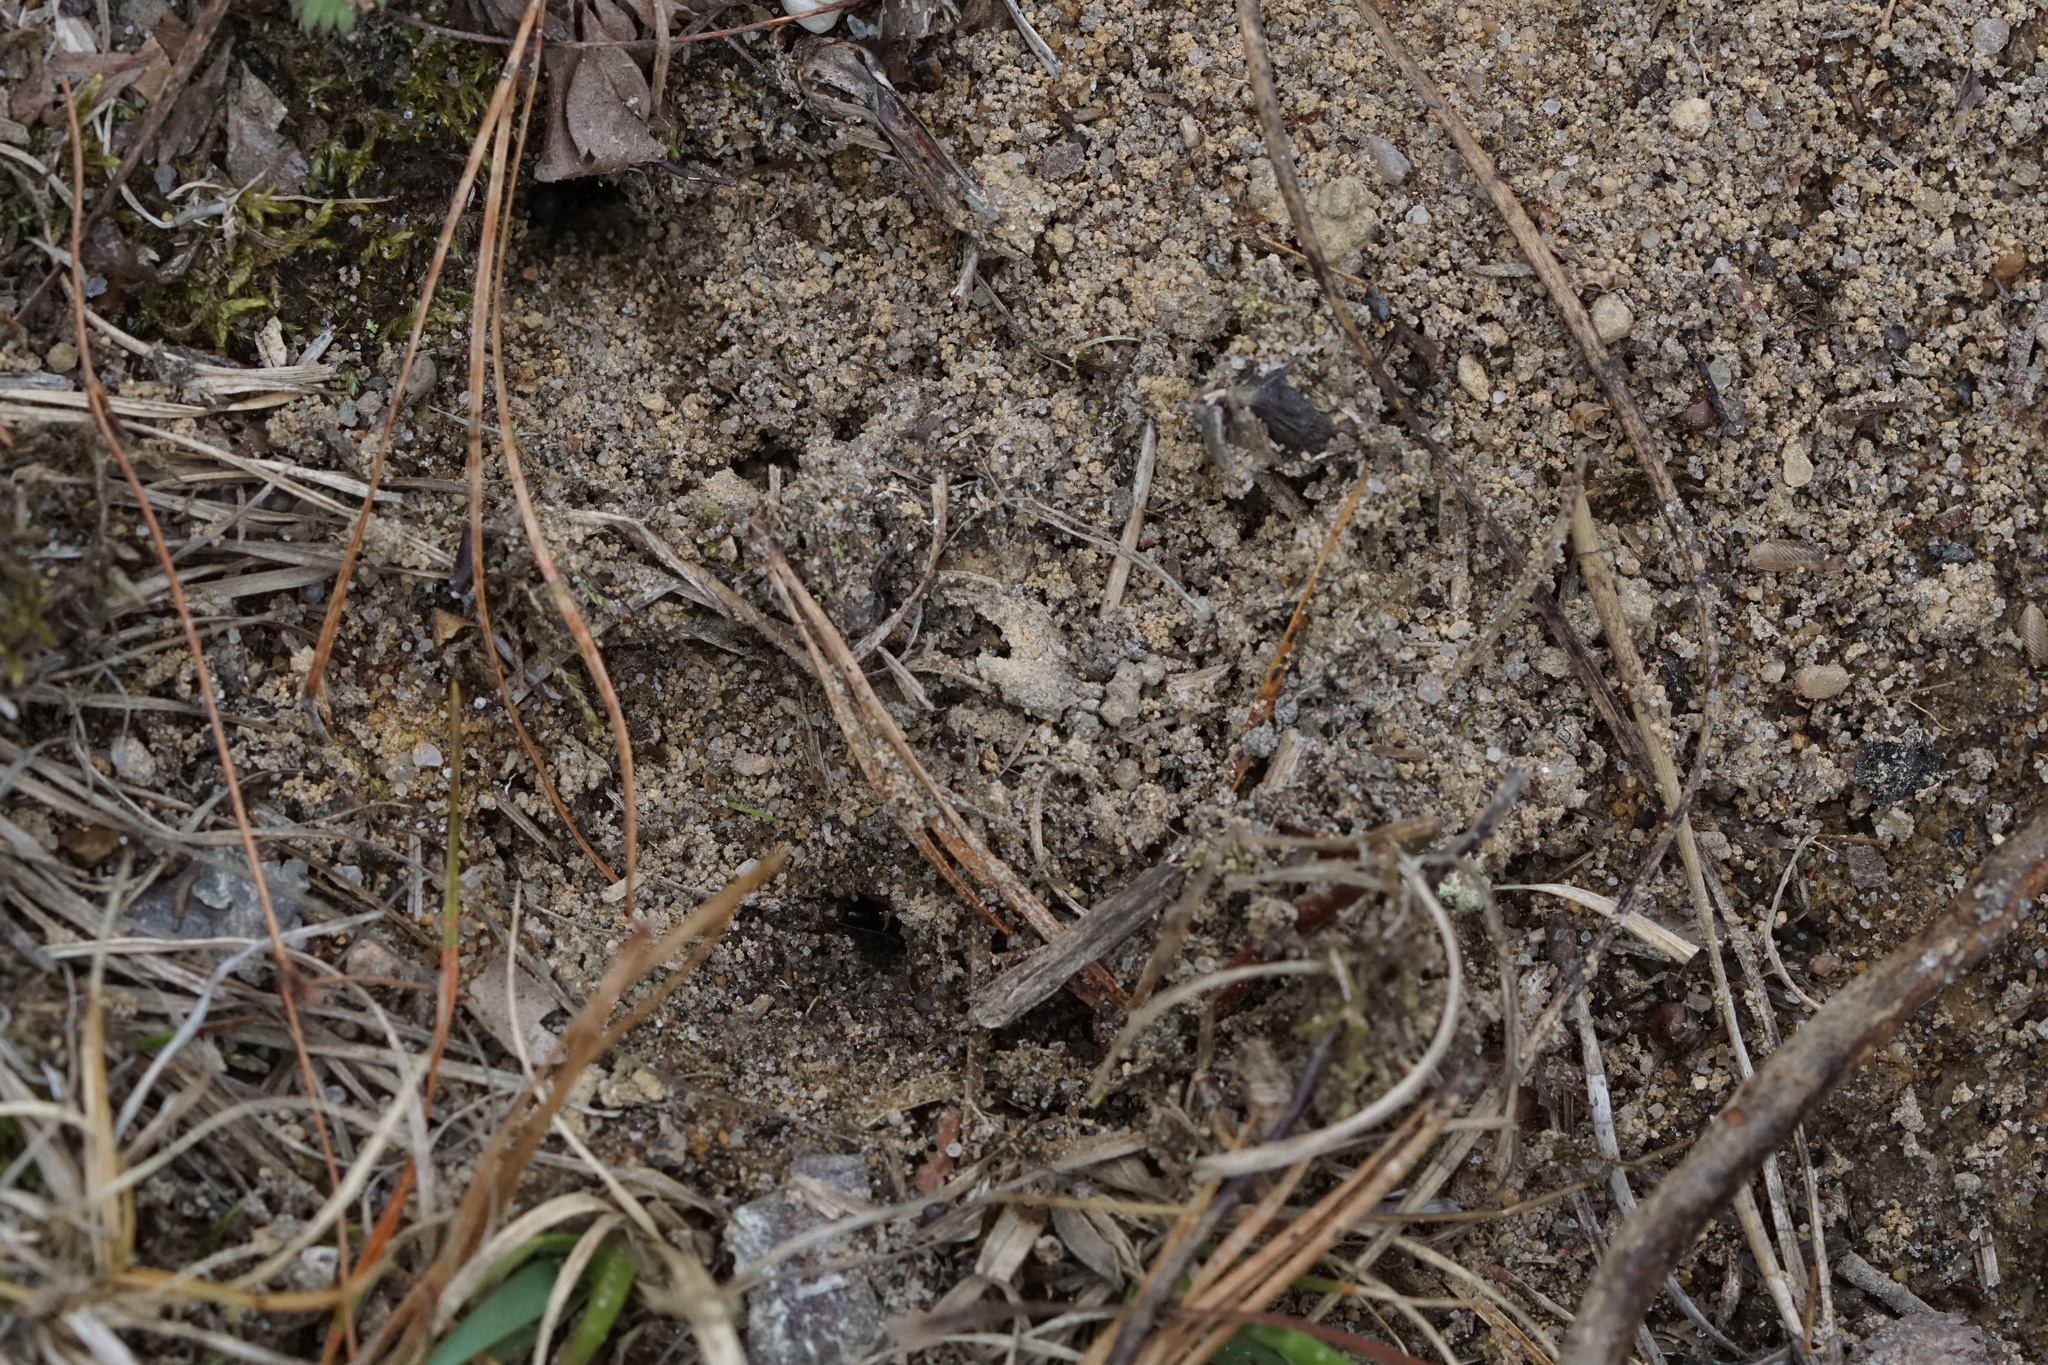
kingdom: Animalia
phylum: Arthropoda
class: Insecta
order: Hymenoptera
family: Formicidae
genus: Formica
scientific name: Formica pallidefulva
